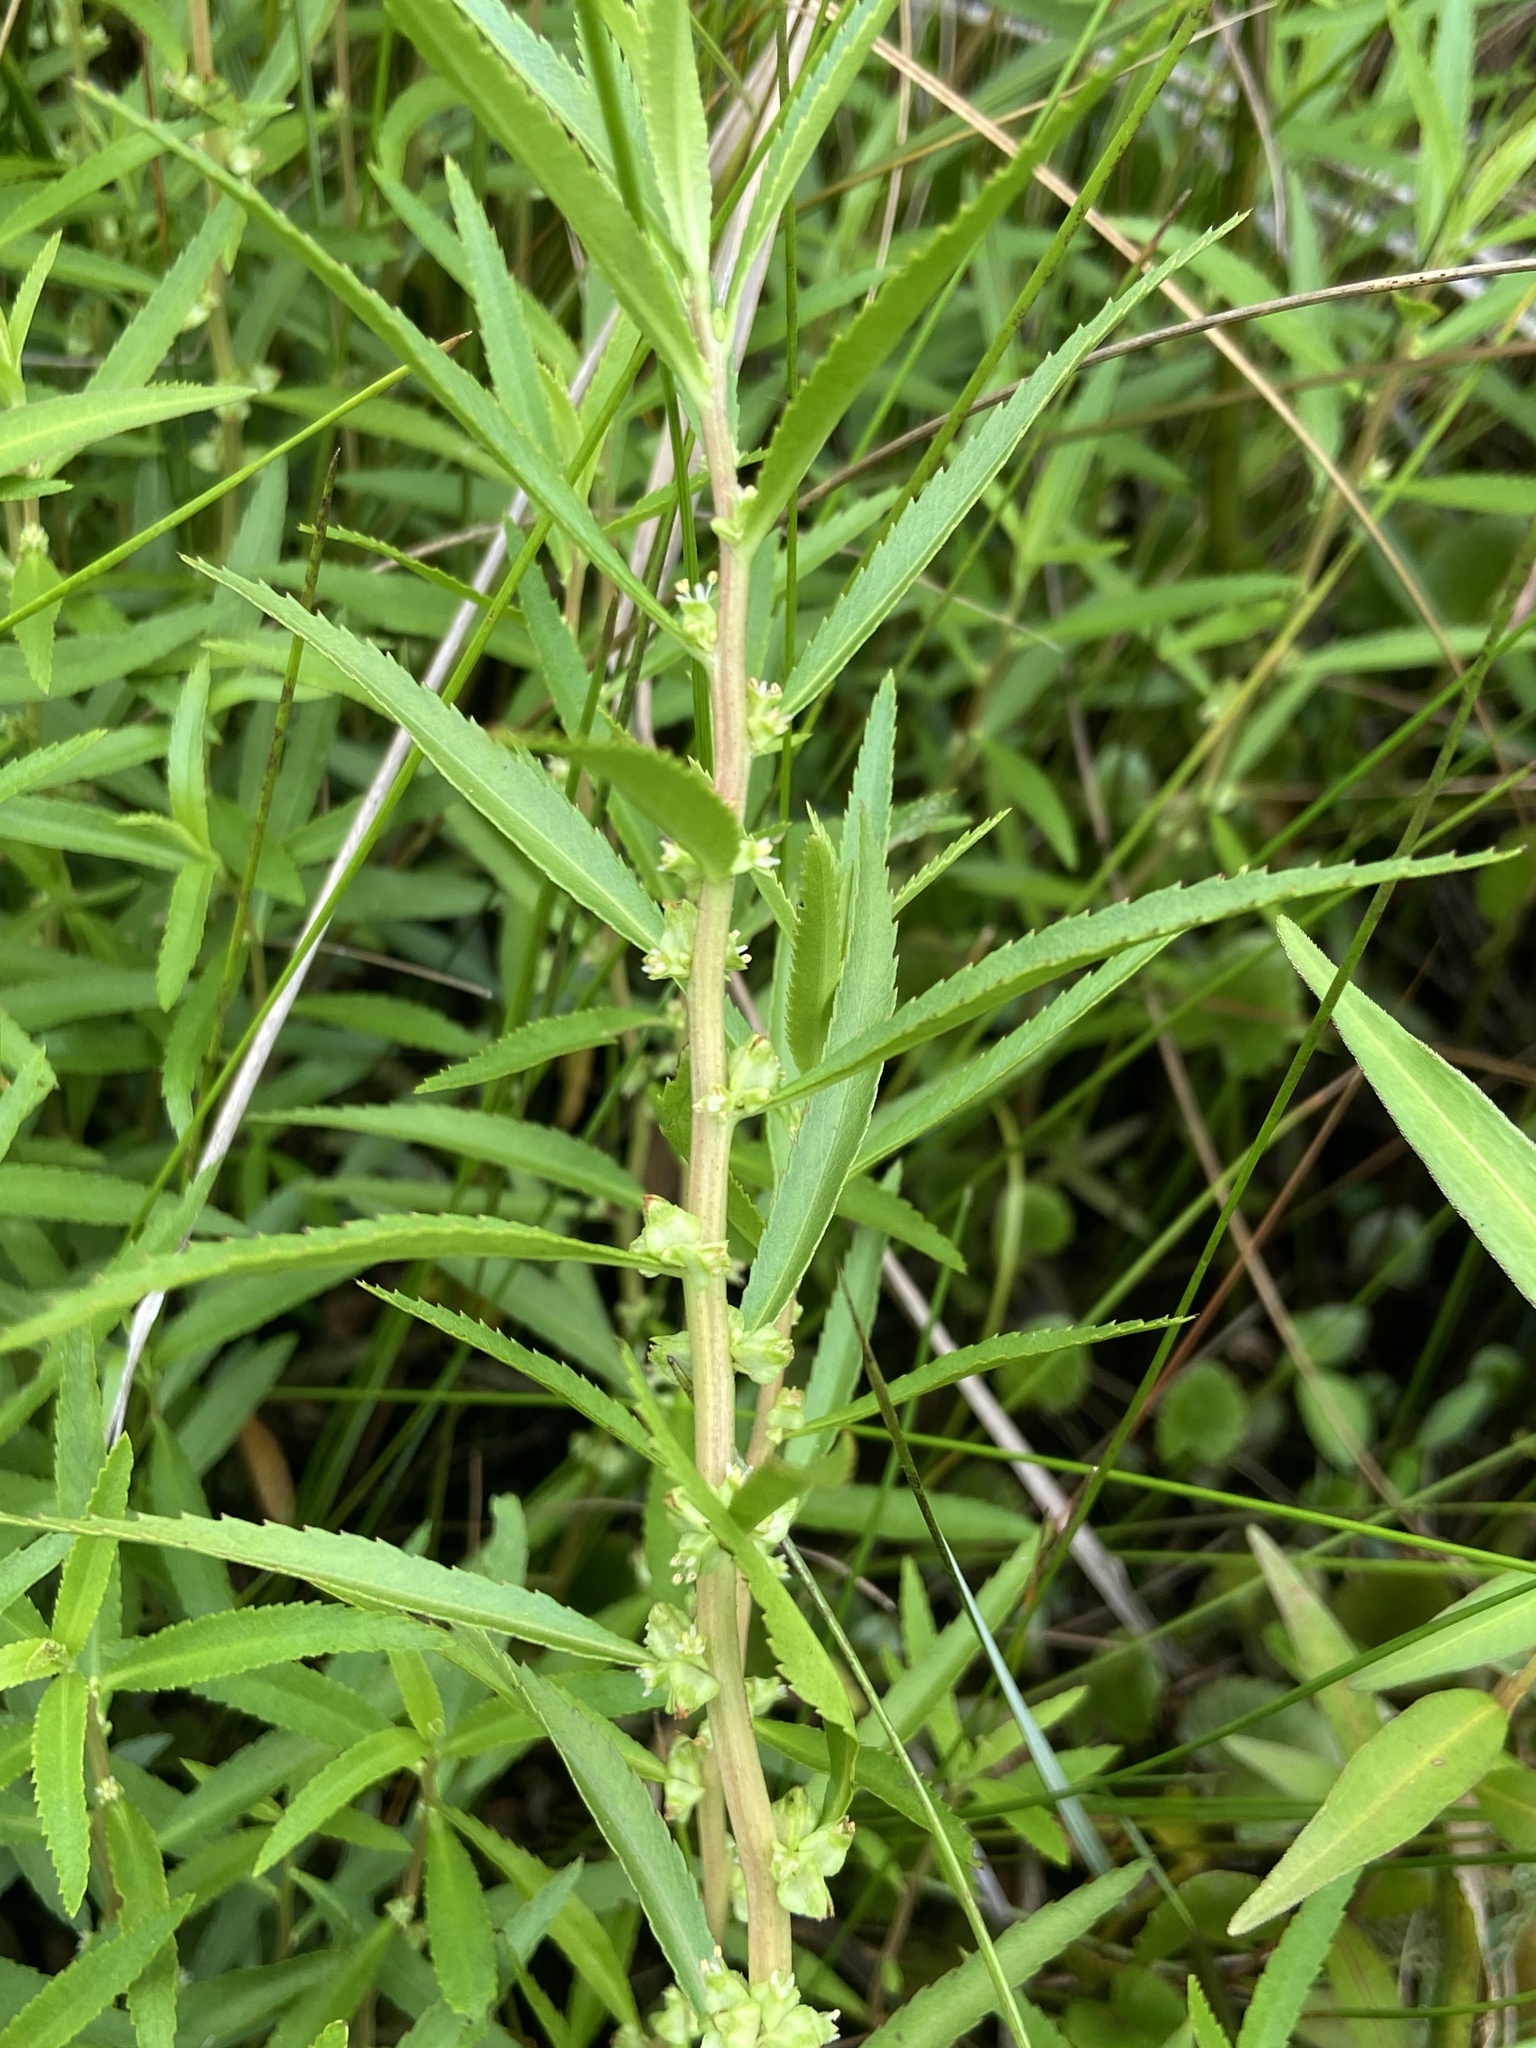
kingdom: Plantae
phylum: Tracheophyta
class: Magnoliopsida
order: Saxifragales
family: Haloragaceae
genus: Proserpinaca
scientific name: Proserpinaca palustris
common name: Marsh mermaidweed
